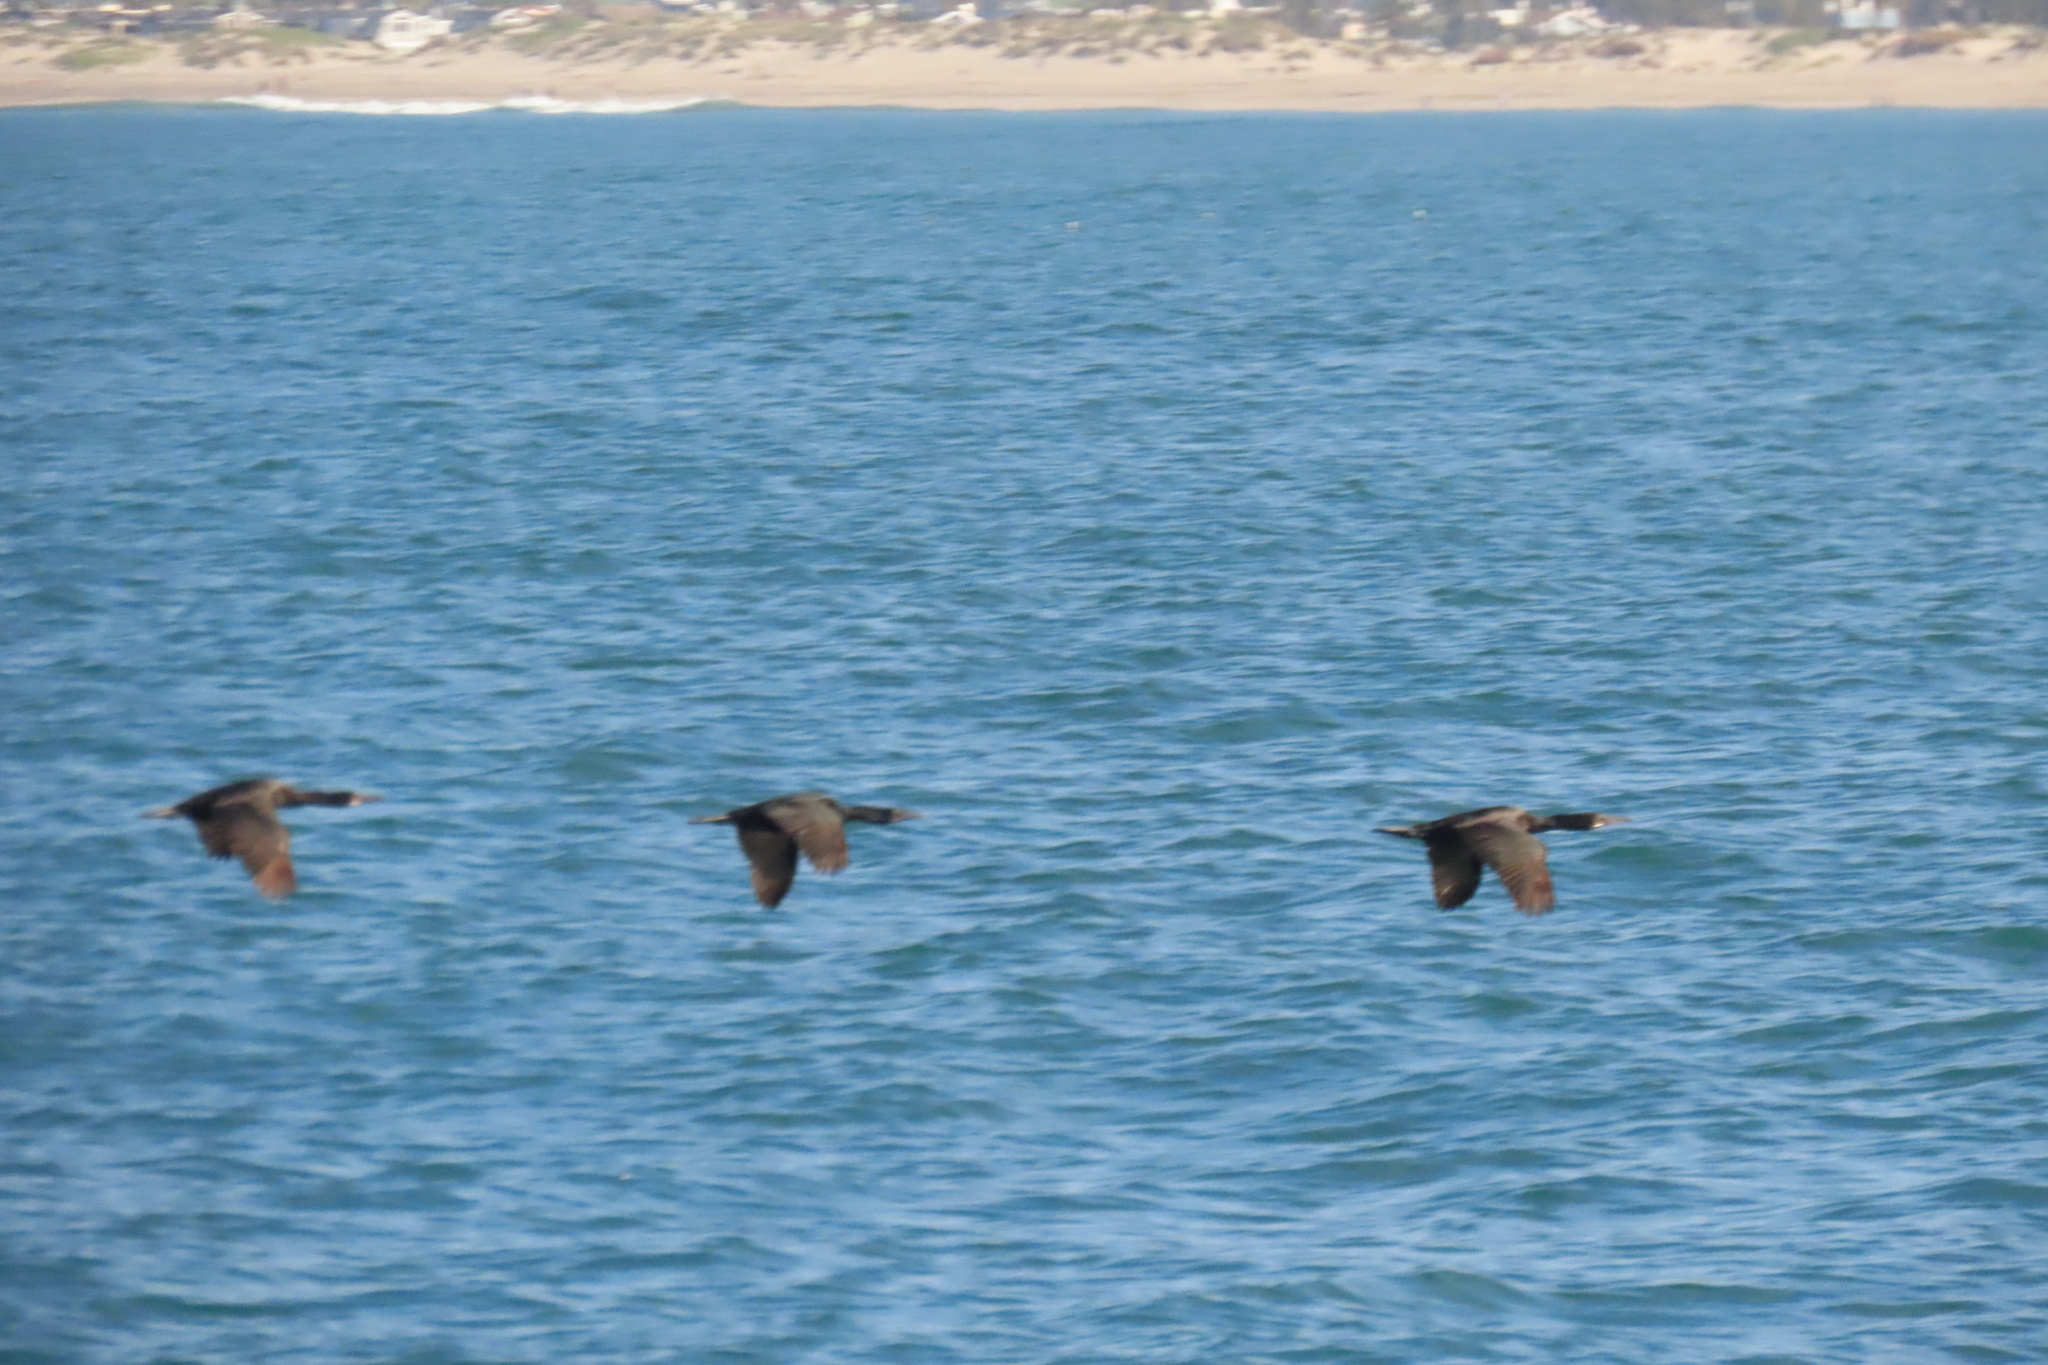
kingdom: Animalia
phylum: Chordata
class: Aves
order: Suliformes
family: Phalacrocoracidae
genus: Urile
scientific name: Urile penicillatus
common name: Brandt's cormorant
